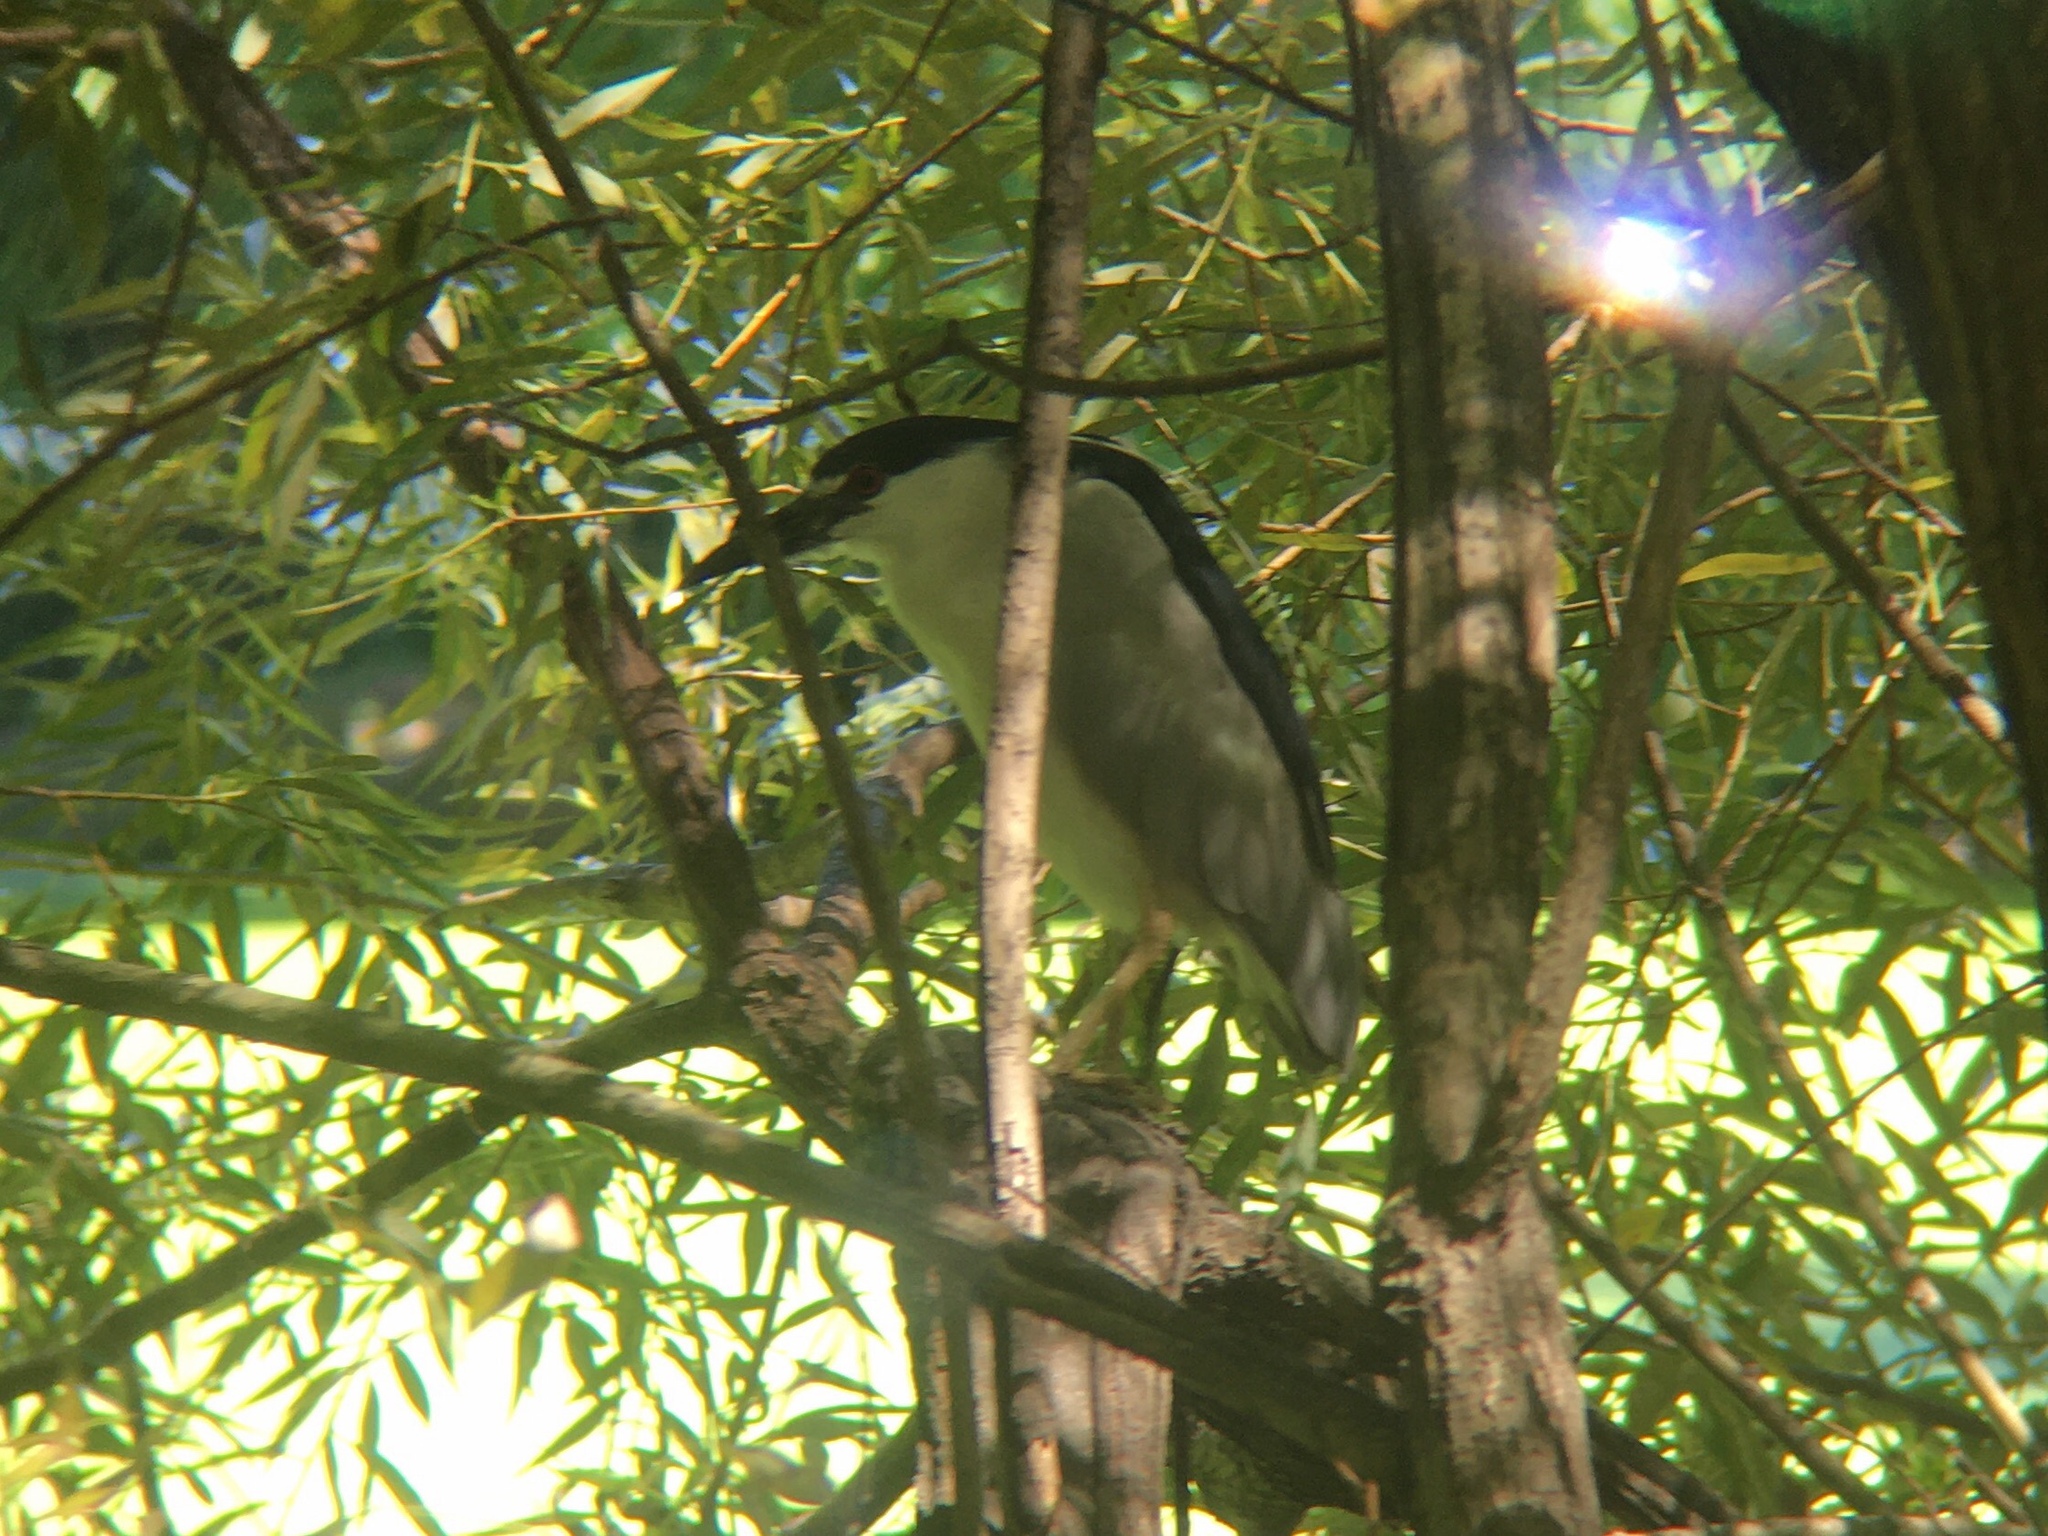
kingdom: Animalia
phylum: Chordata
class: Aves
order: Pelecaniformes
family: Ardeidae
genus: Nycticorax
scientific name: Nycticorax nycticorax
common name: Black-crowned night heron
